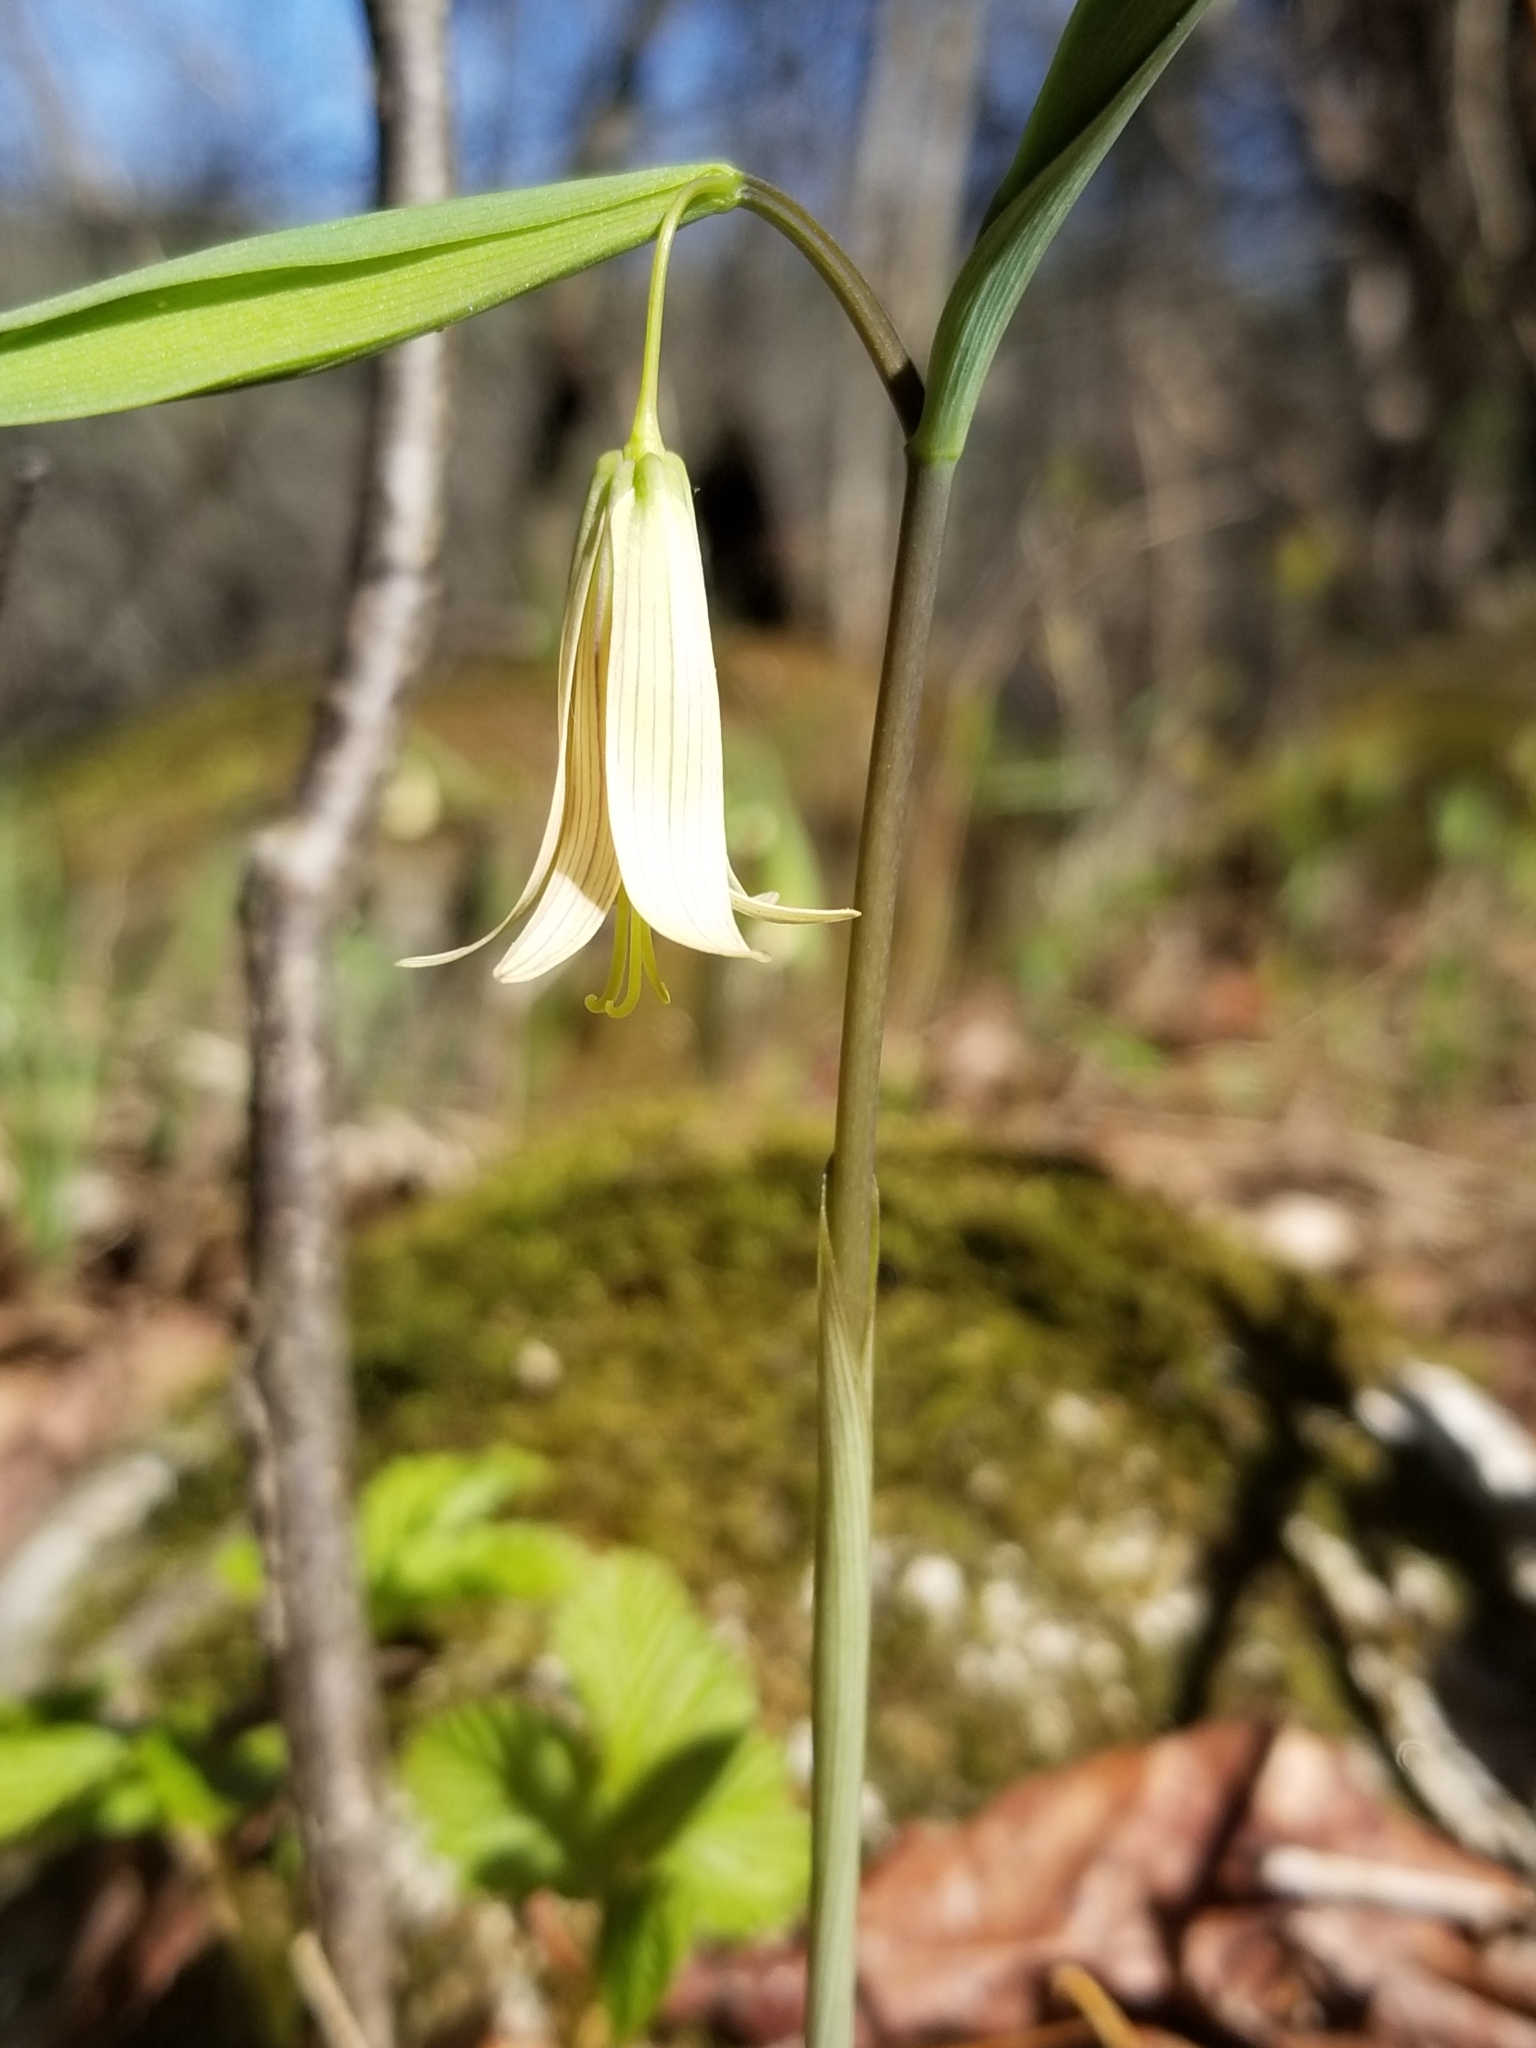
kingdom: Plantae
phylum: Tracheophyta
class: Liliopsida
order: Liliales
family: Colchicaceae
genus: Uvularia
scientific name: Uvularia sessilifolia
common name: Straw-lily
